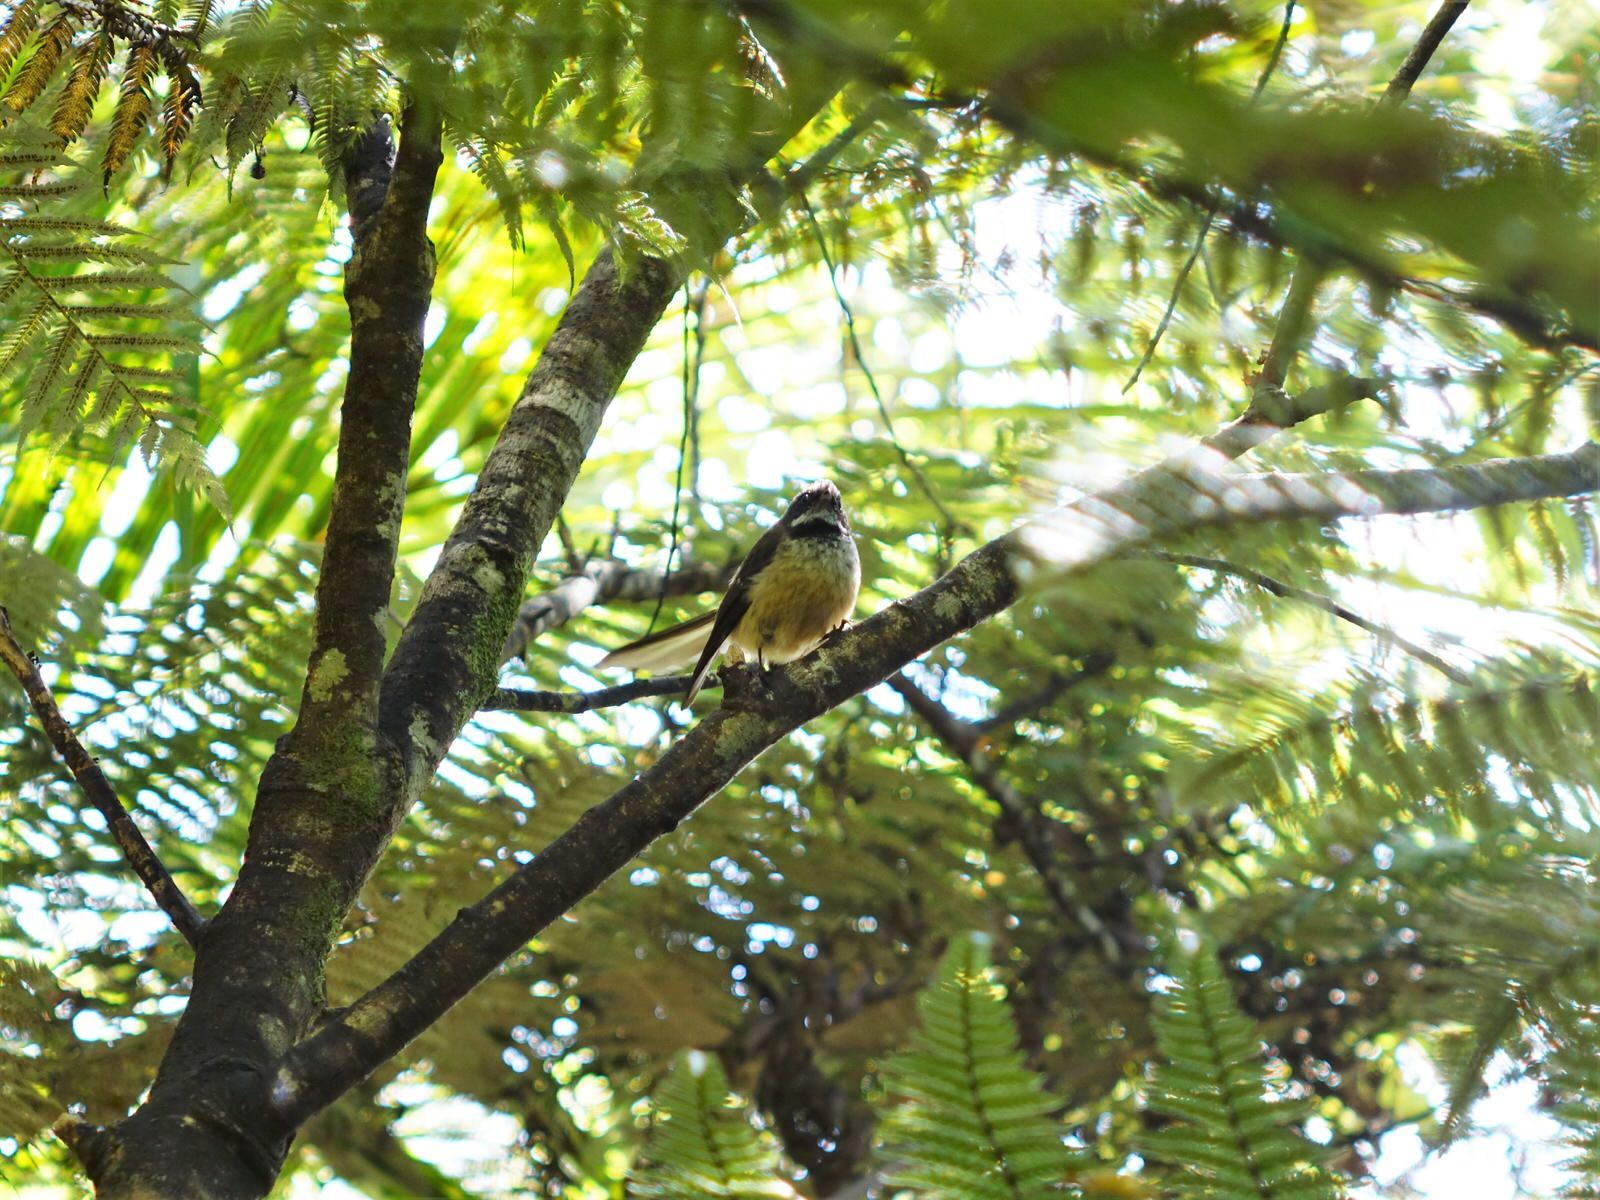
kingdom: Animalia
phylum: Chordata
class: Aves
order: Passeriformes
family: Rhipiduridae
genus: Rhipidura
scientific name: Rhipidura fuliginosa
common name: New zealand fantail
